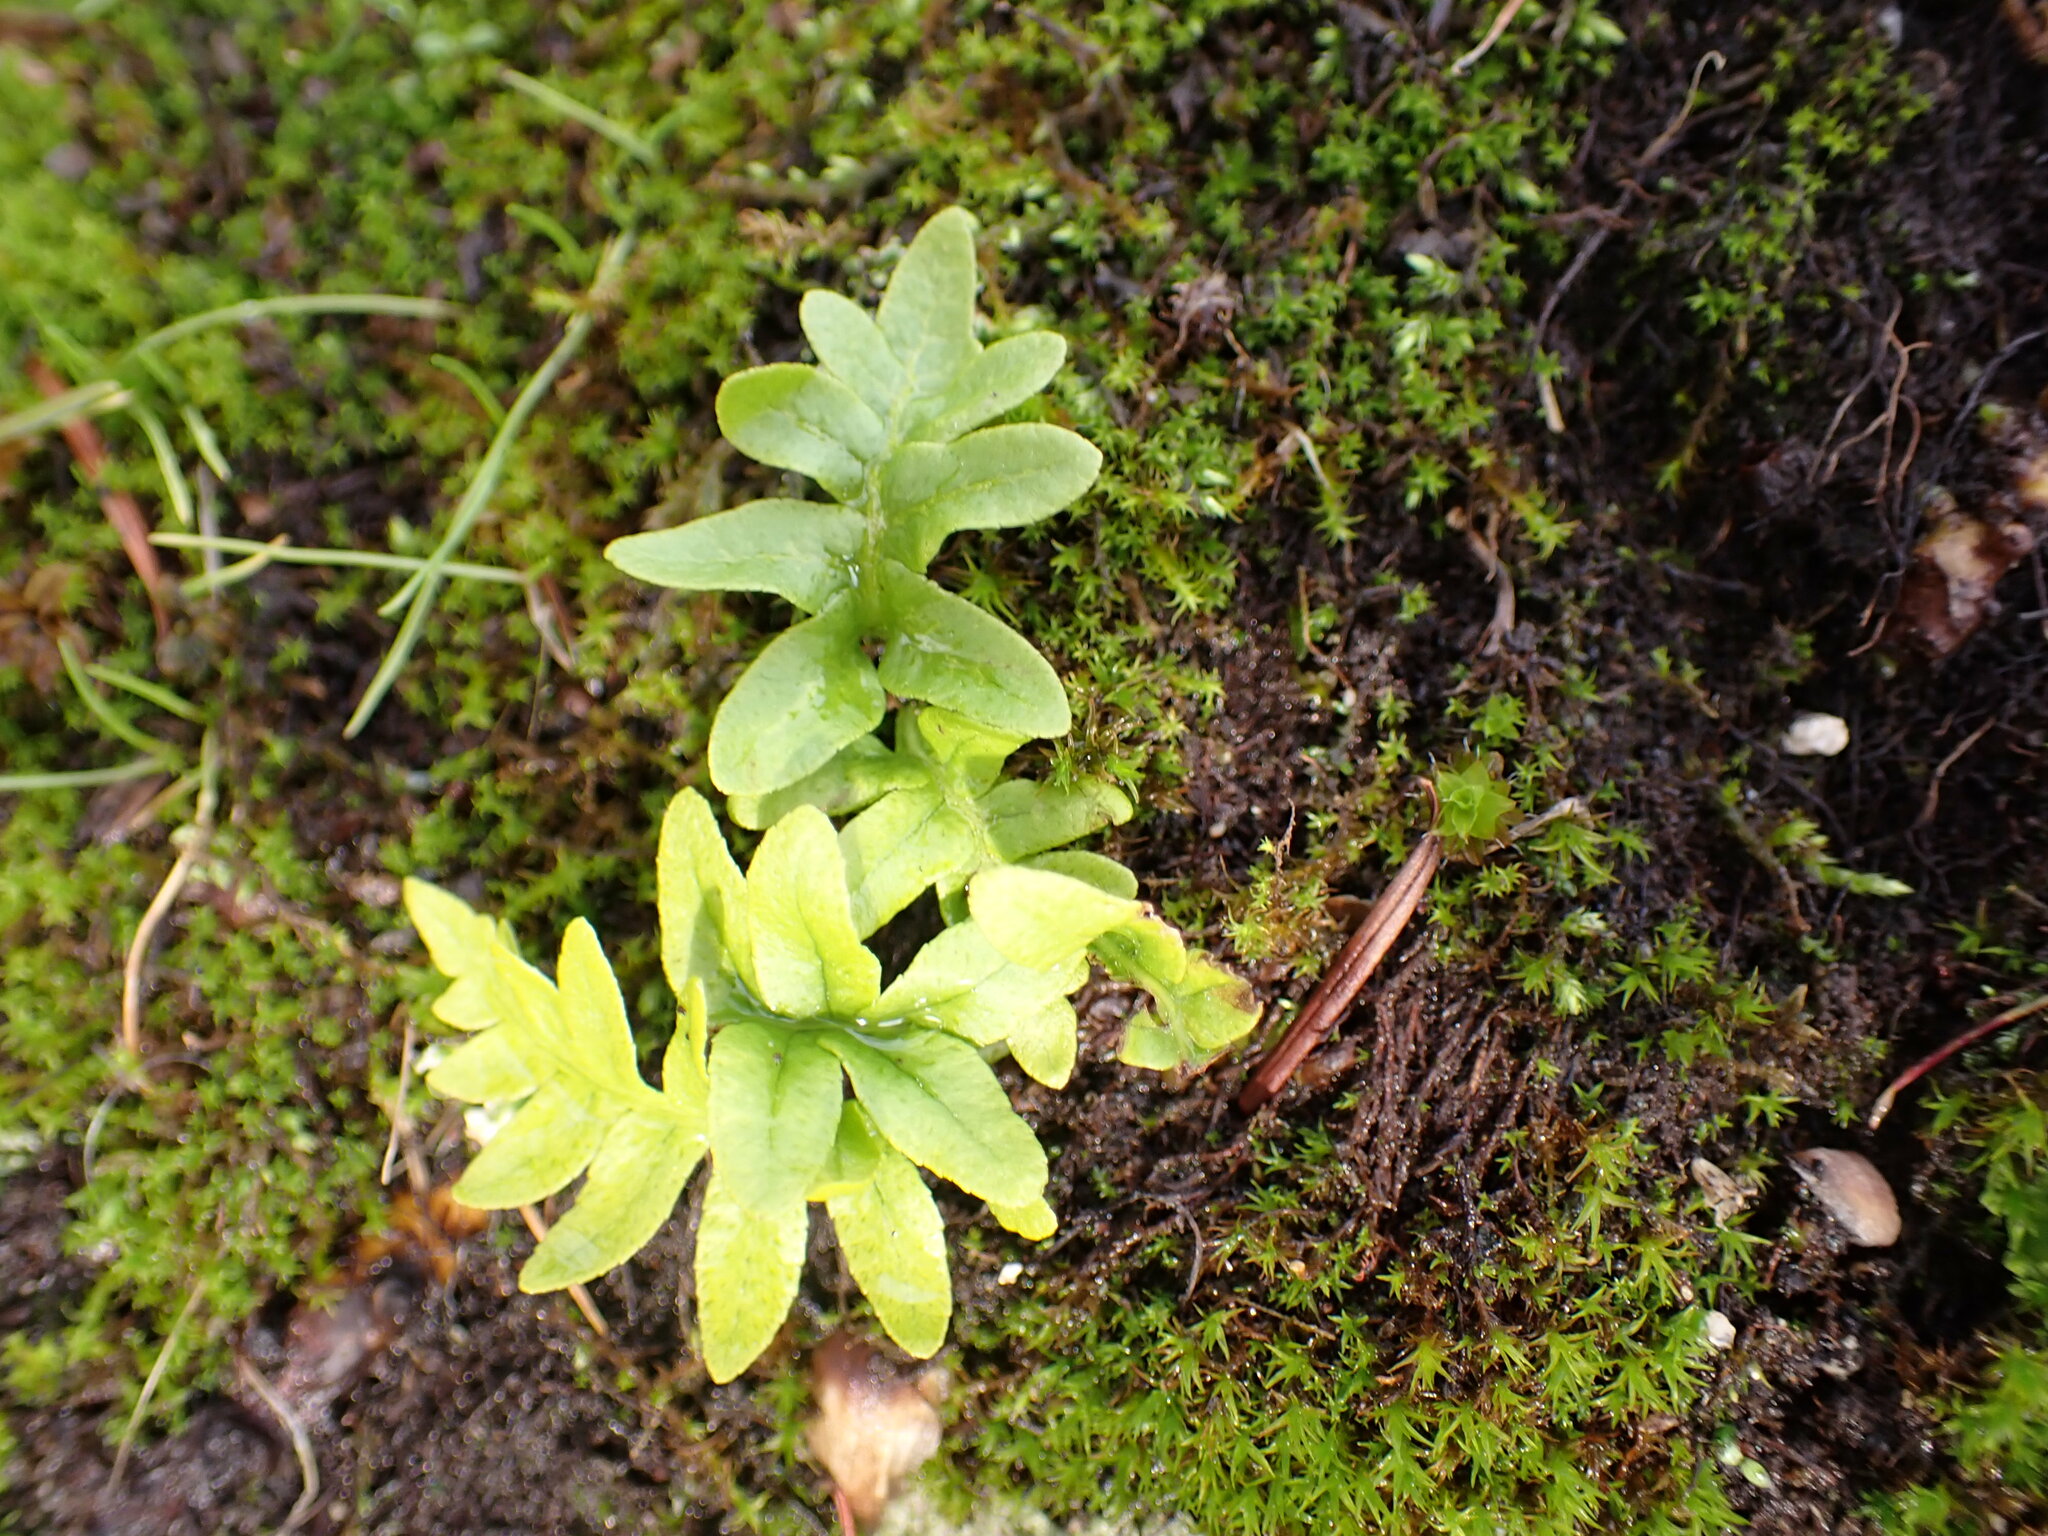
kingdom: Plantae
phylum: Tracheophyta
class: Polypodiopsida
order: Polypodiales
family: Polypodiaceae
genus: Polypodium
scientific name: Polypodium glycyrrhiza
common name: Licorice fern
